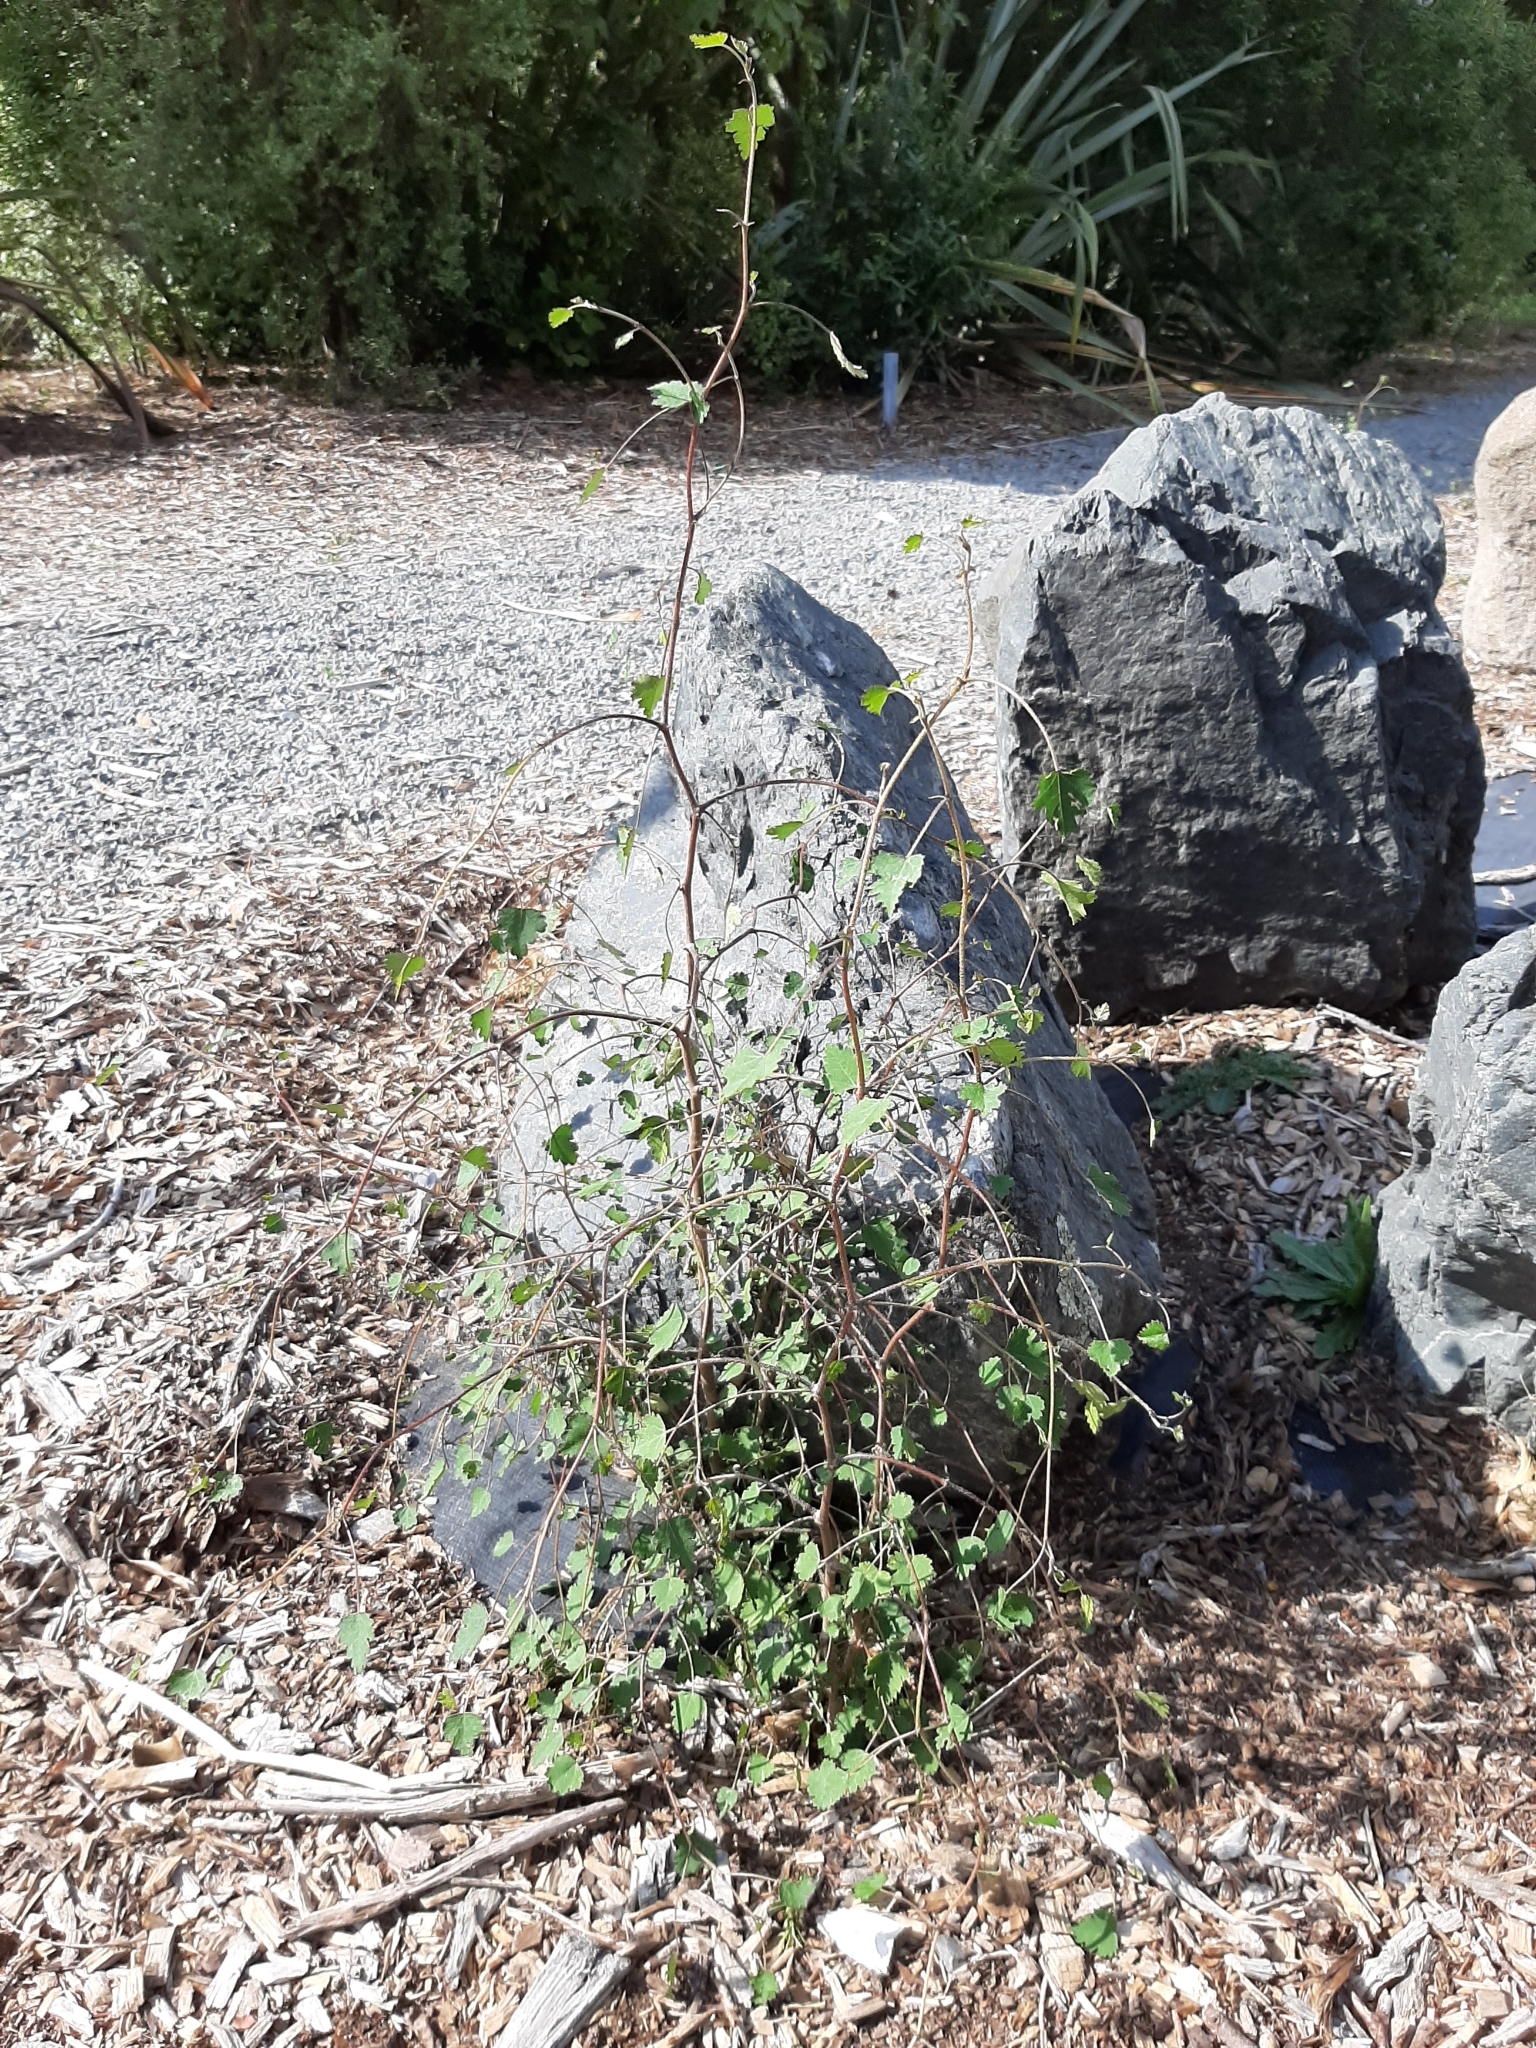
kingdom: Plantae
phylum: Tracheophyta
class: Magnoliopsida
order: Malvales
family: Malvaceae
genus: Plagianthus
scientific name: Plagianthus regius
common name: Manatu
